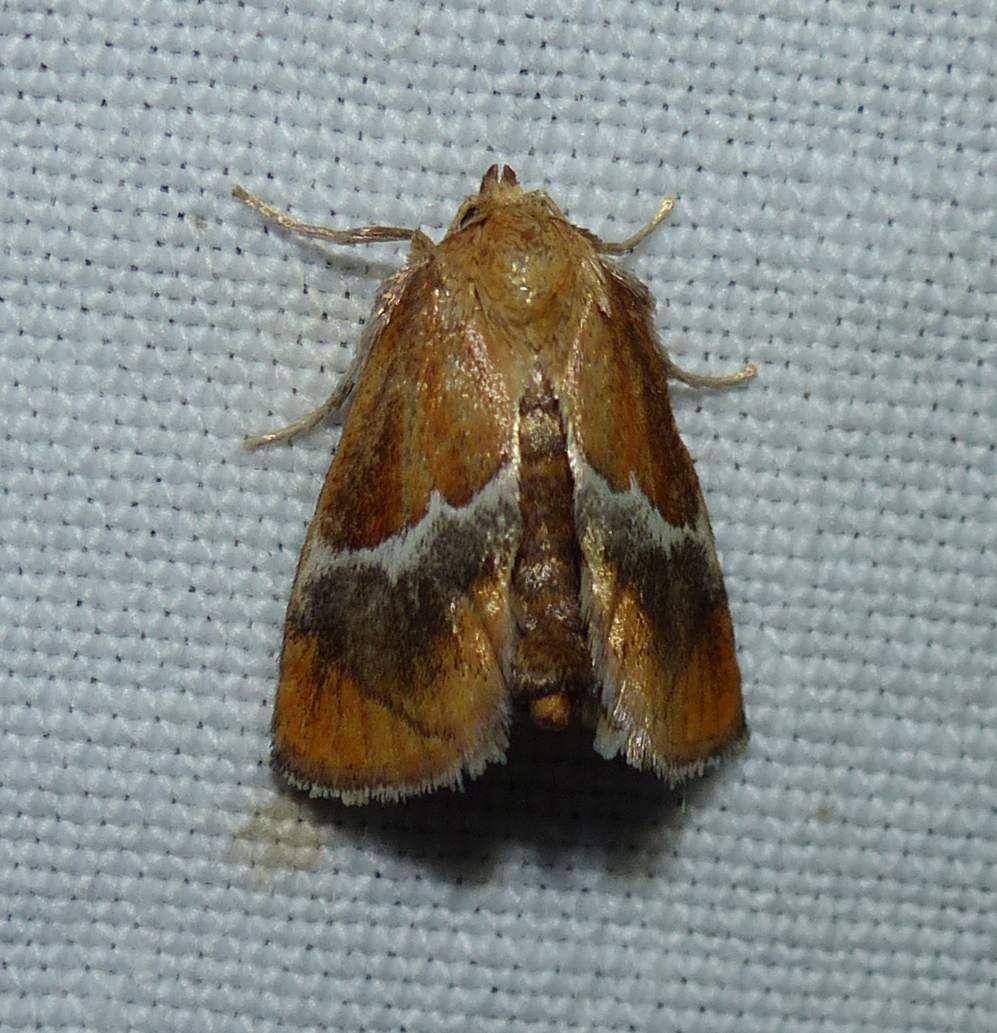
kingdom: Animalia
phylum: Arthropoda
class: Insecta
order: Lepidoptera
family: Limacodidae
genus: Lithacodes
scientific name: Lithacodes fasciola
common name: Yellow-shouldered slug moth
